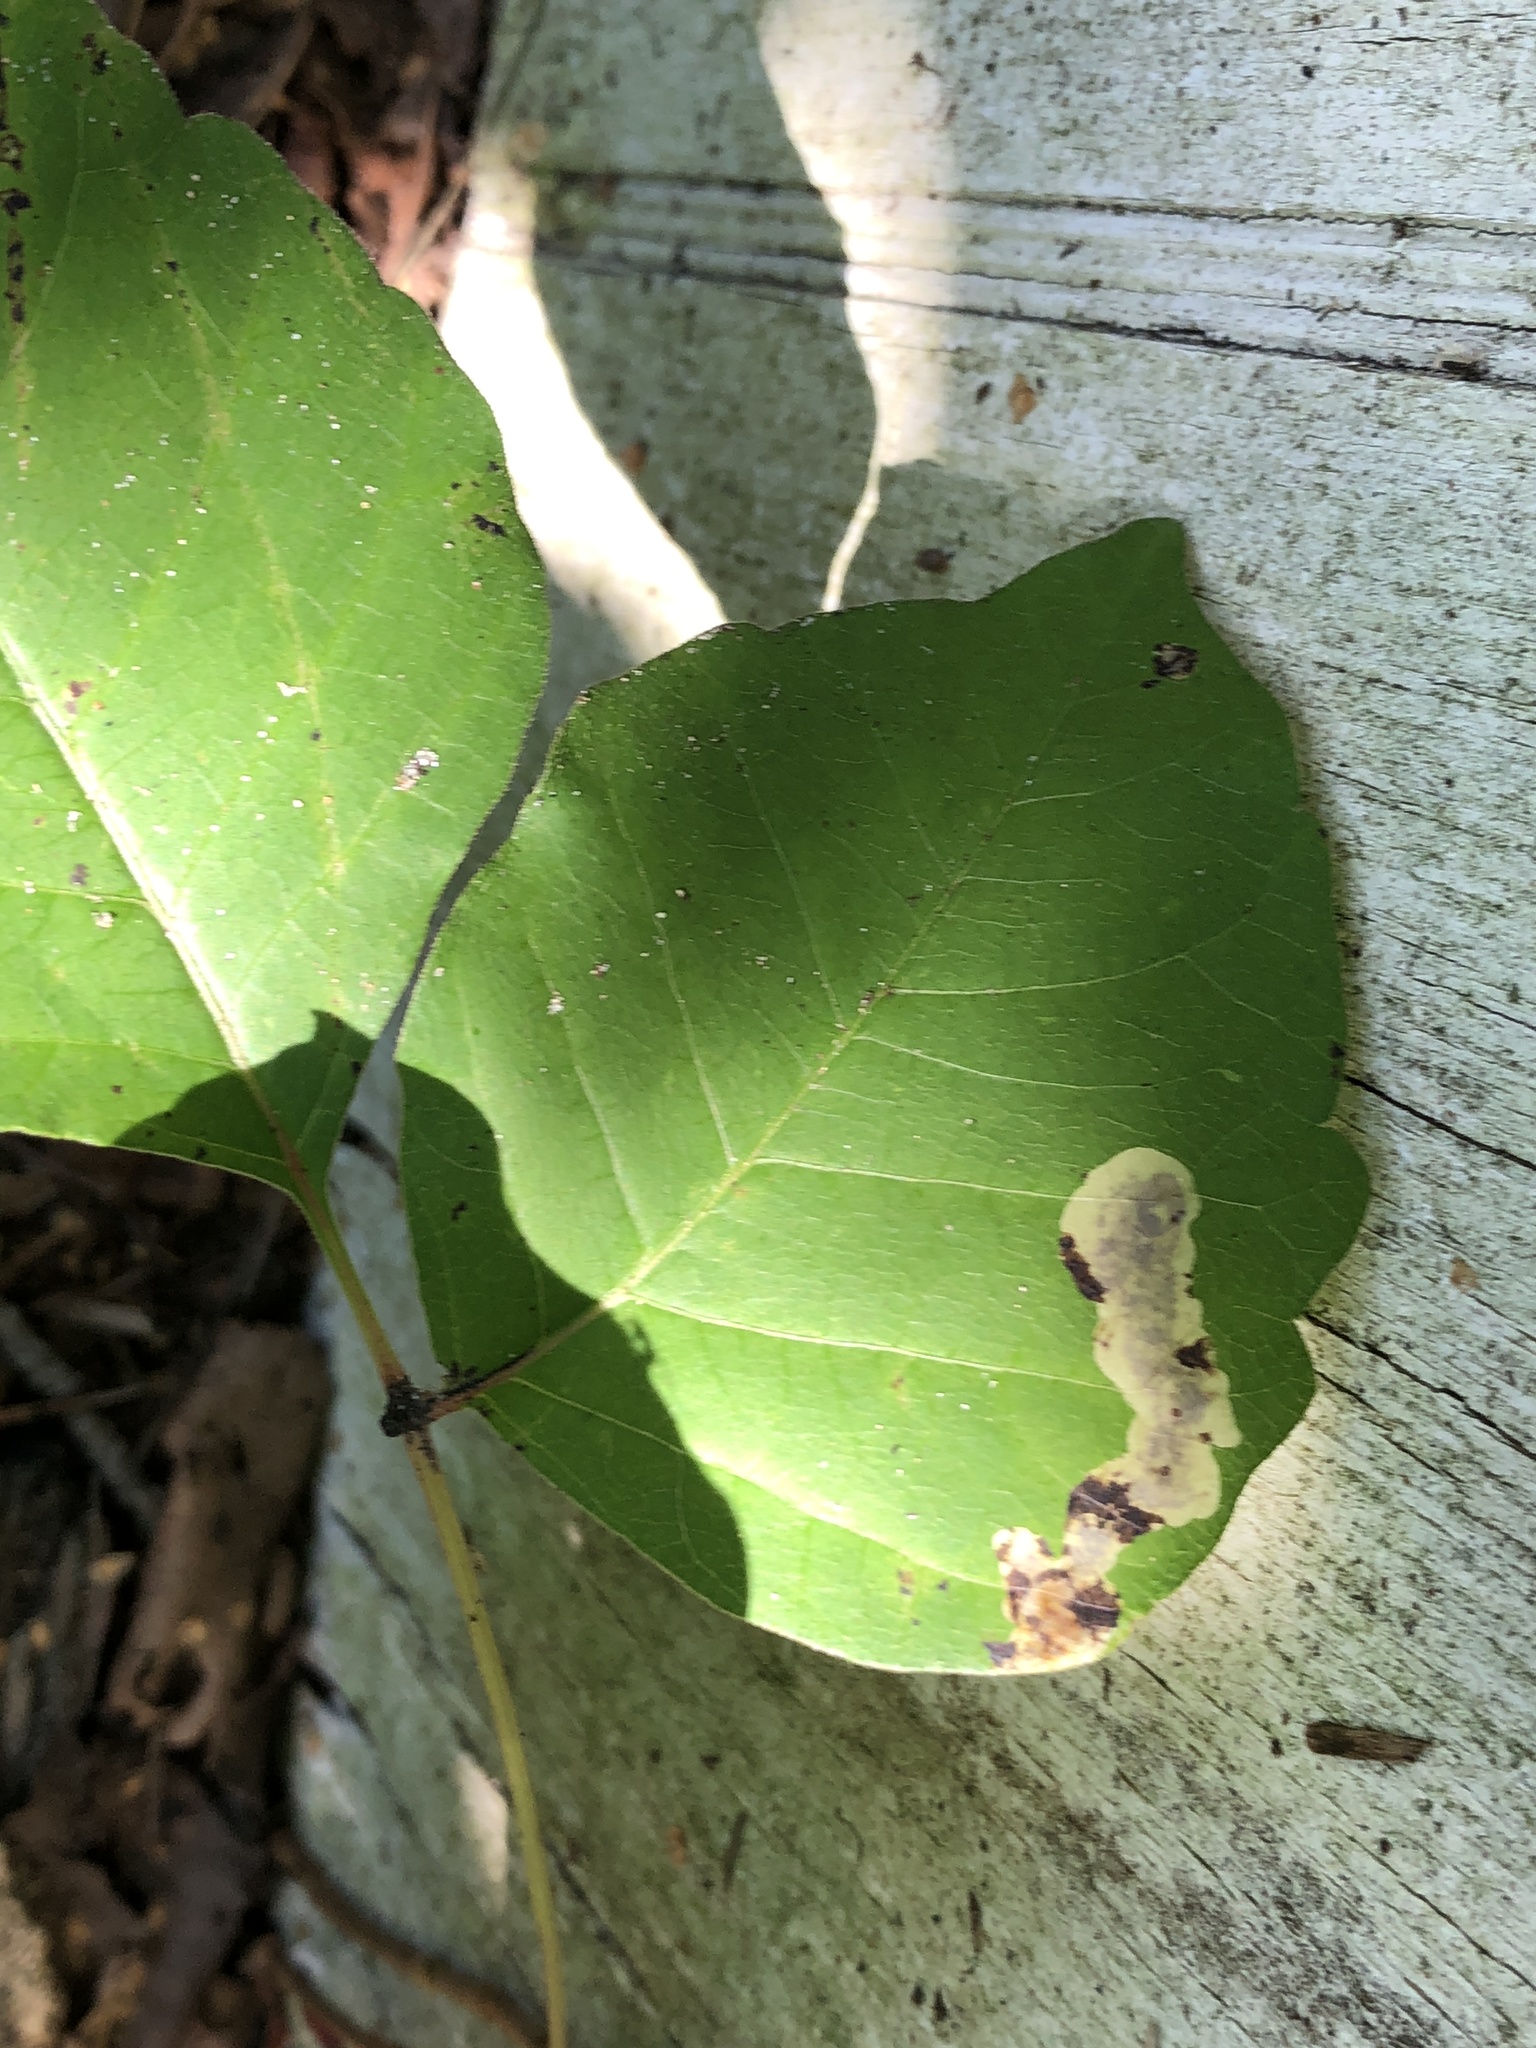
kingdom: Animalia
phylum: Arthropoda
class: Insecta
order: Lepidoptera
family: Gracillariidae
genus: Cameraria
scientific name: Cameraria guttifinitella
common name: Poison ivy leaf-miner moth
